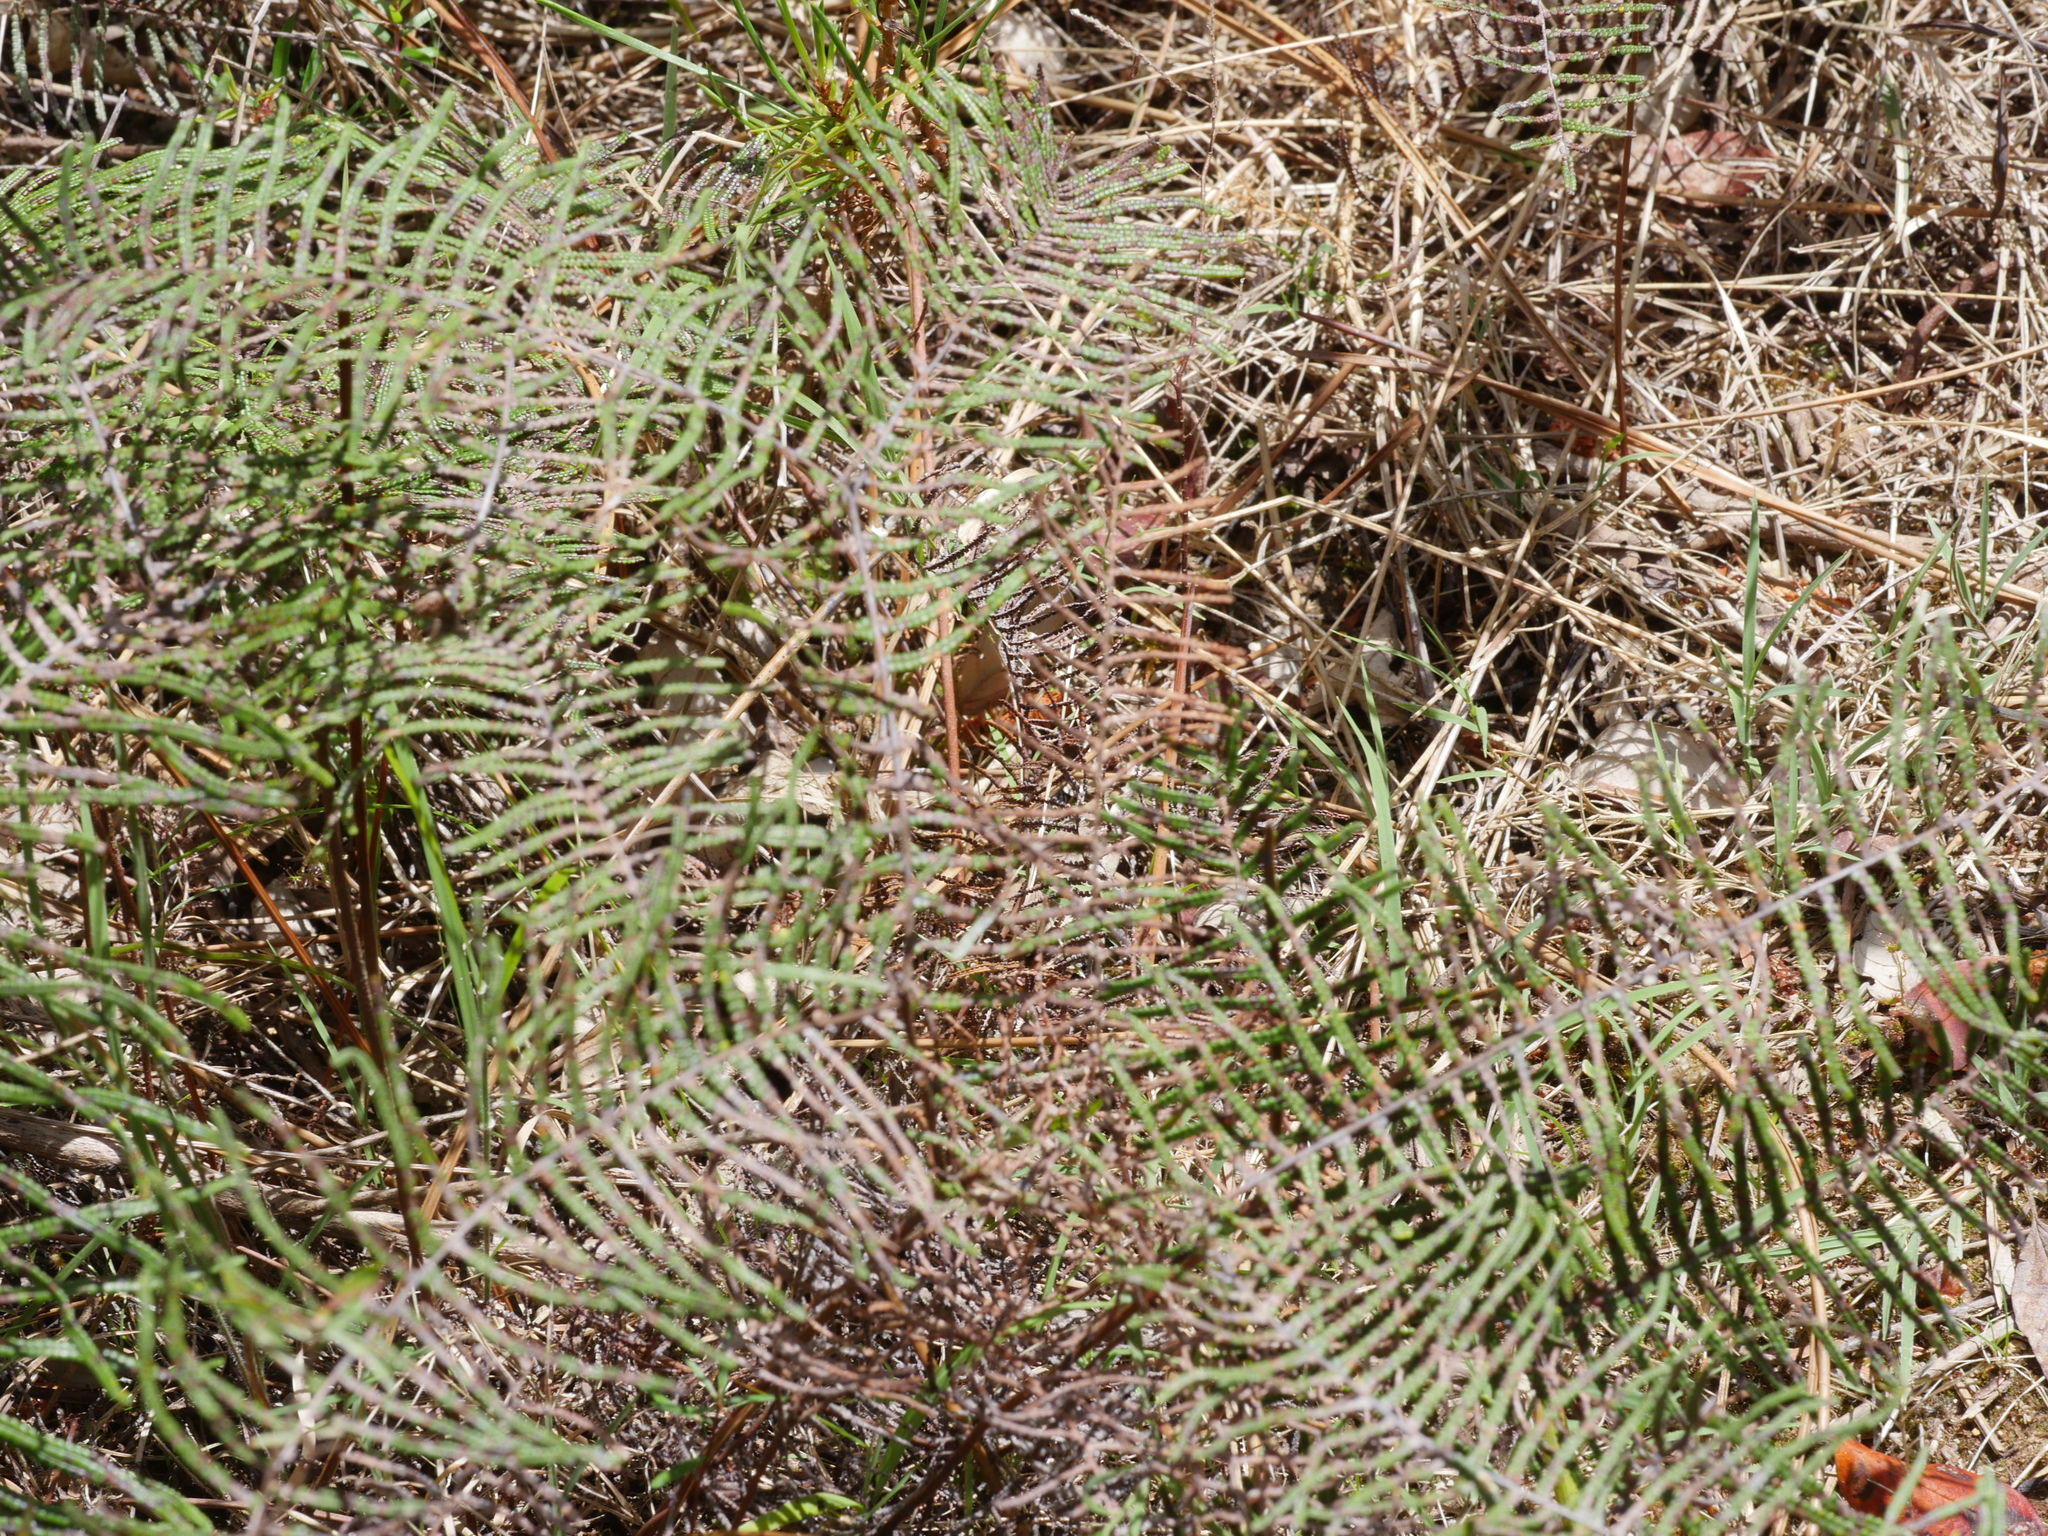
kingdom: Plantae
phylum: Tracheophyta
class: Polypodiopsida
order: Gleicheniales
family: Gleicheniaceae
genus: Gleichenia
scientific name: Gleichenia dicarpa
